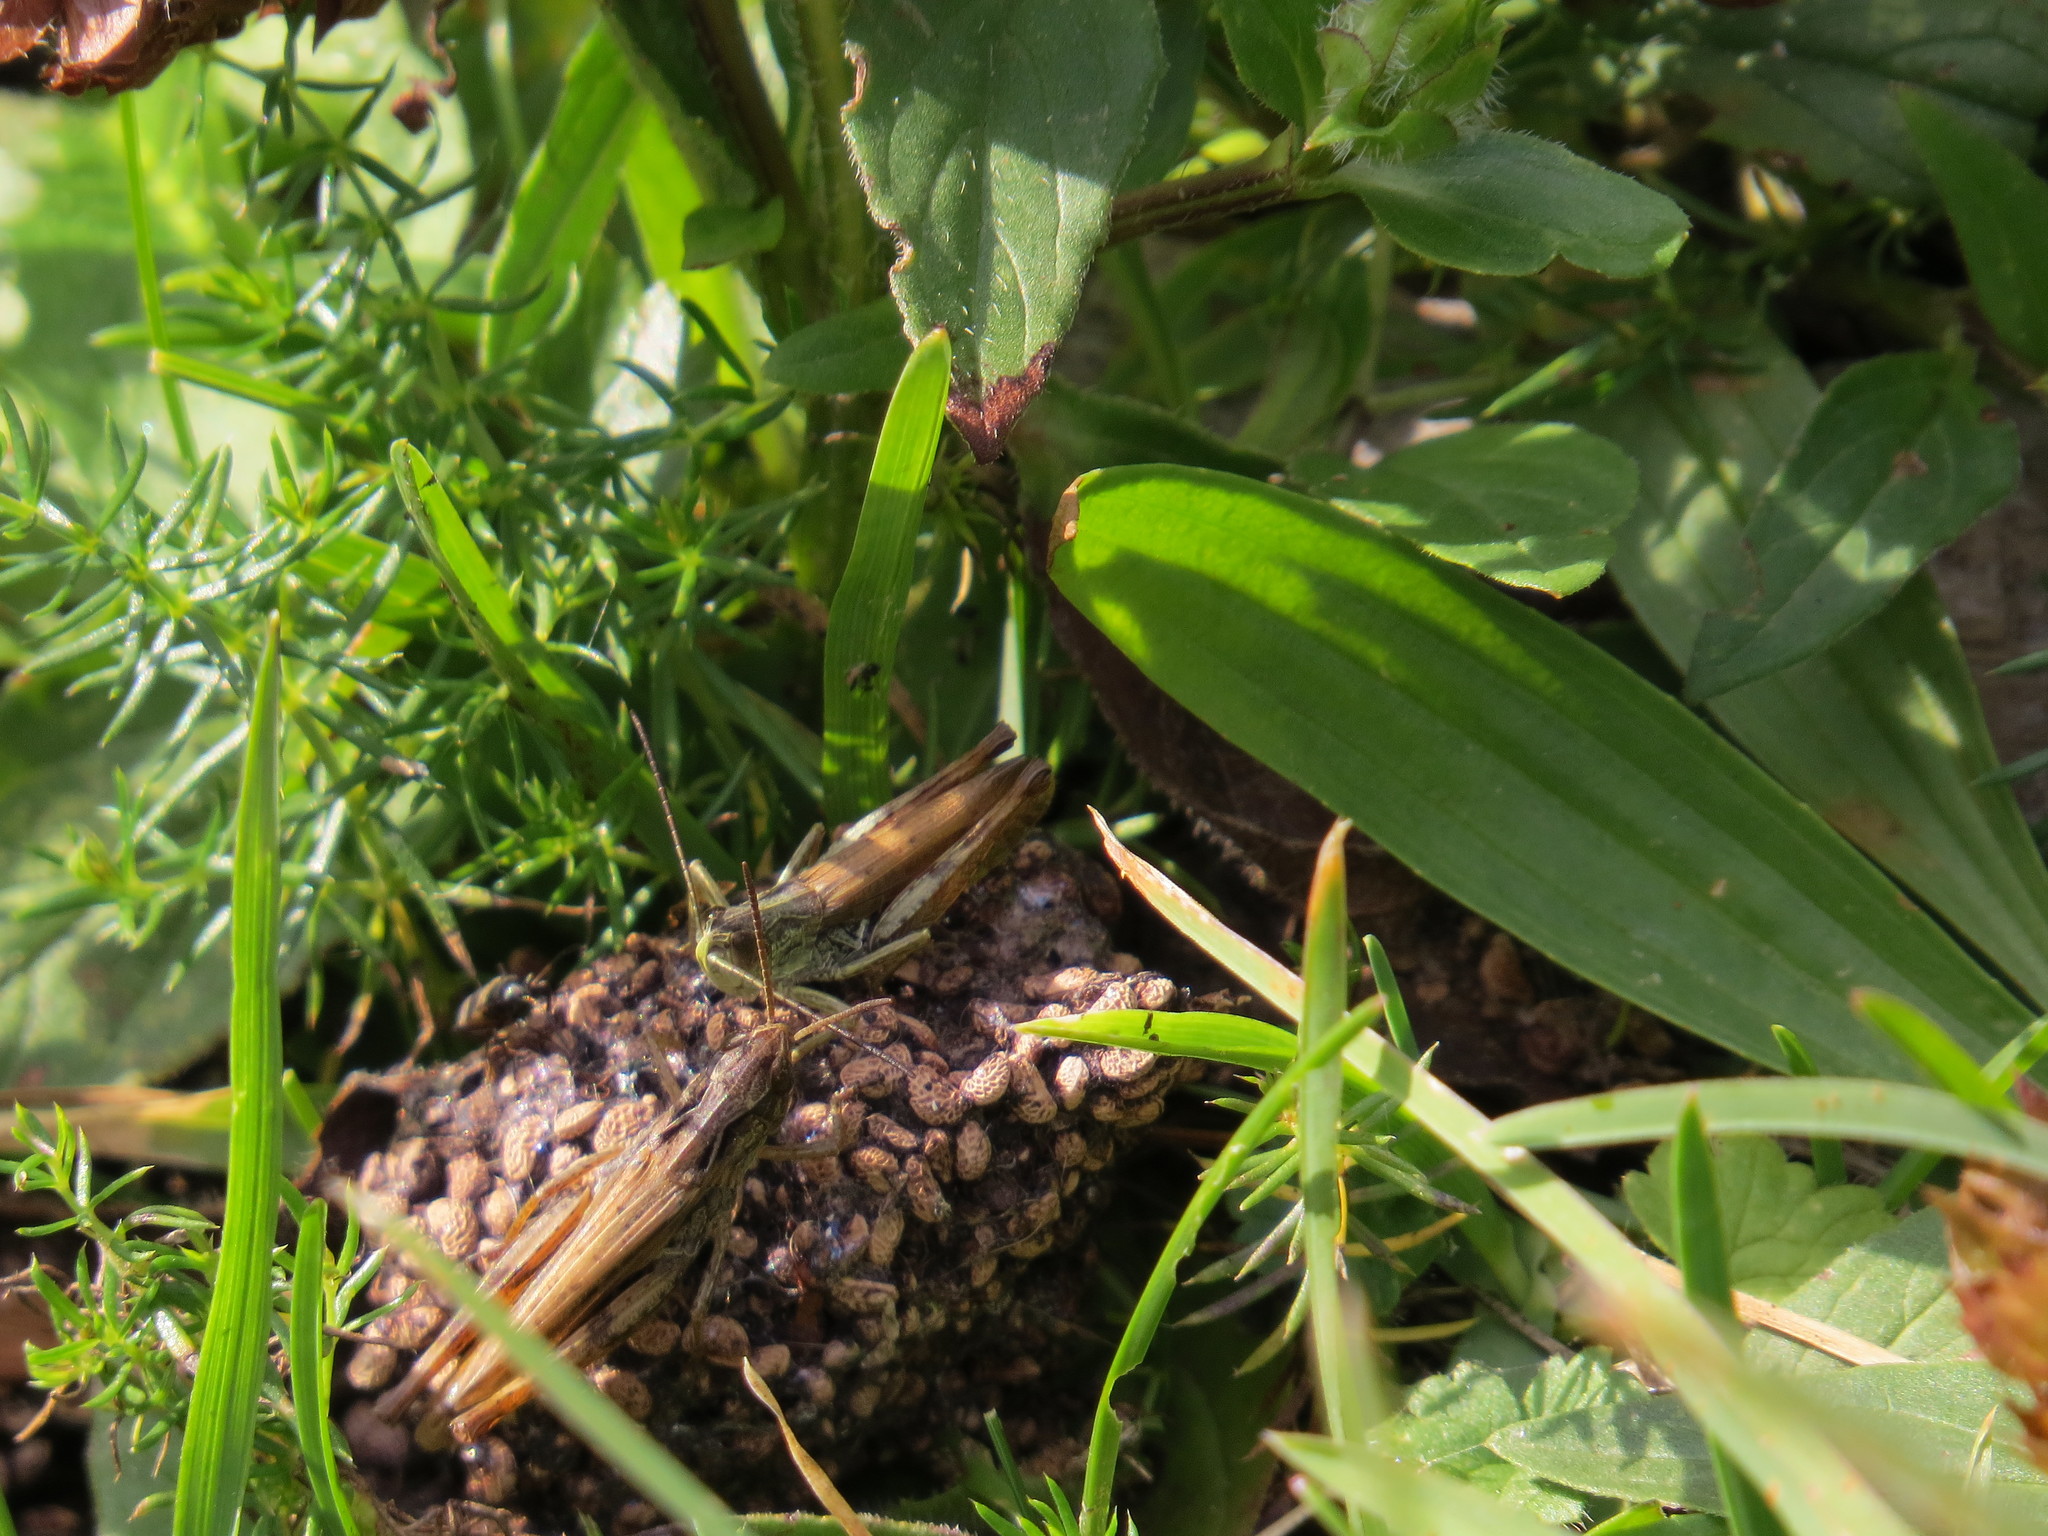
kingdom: Animalia
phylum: Arthropoda
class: Insecta
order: Orthoptera
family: Acrididae
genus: Chorthippus
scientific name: Chorthippus apricarius
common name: Upland field grasshopper
